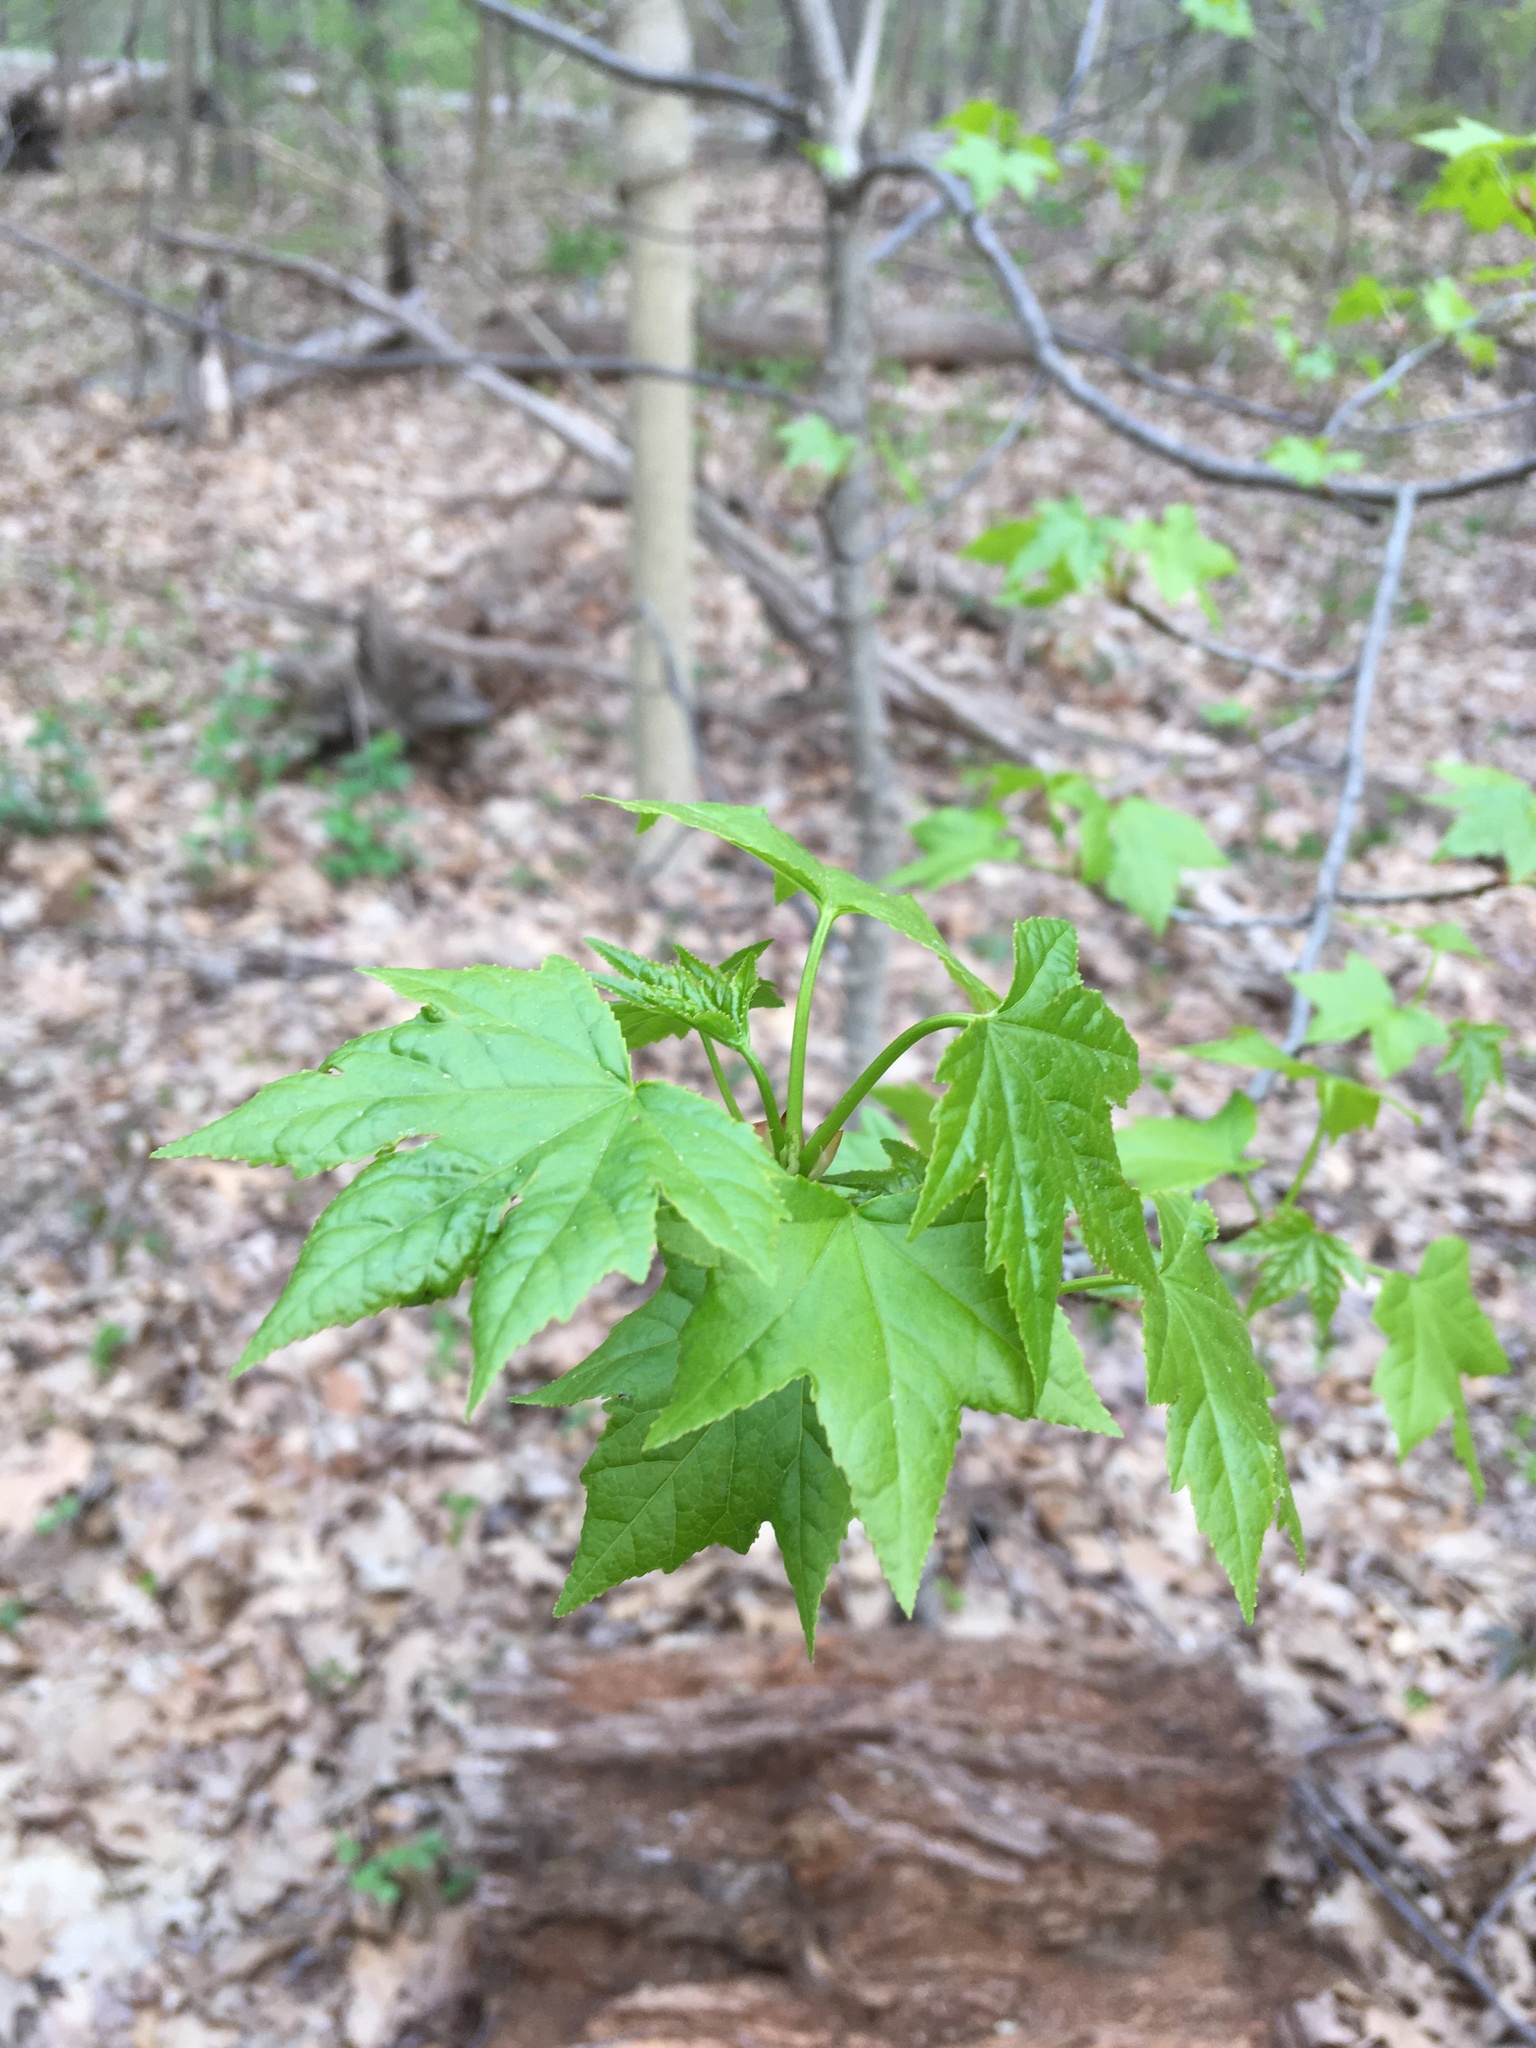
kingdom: Plantae
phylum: Tracheophyta
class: Magnoliopsida
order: Saxifragales
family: Altingiaceae
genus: Liquidambar
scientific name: Liquidambar styraciflua
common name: Sweet gum
